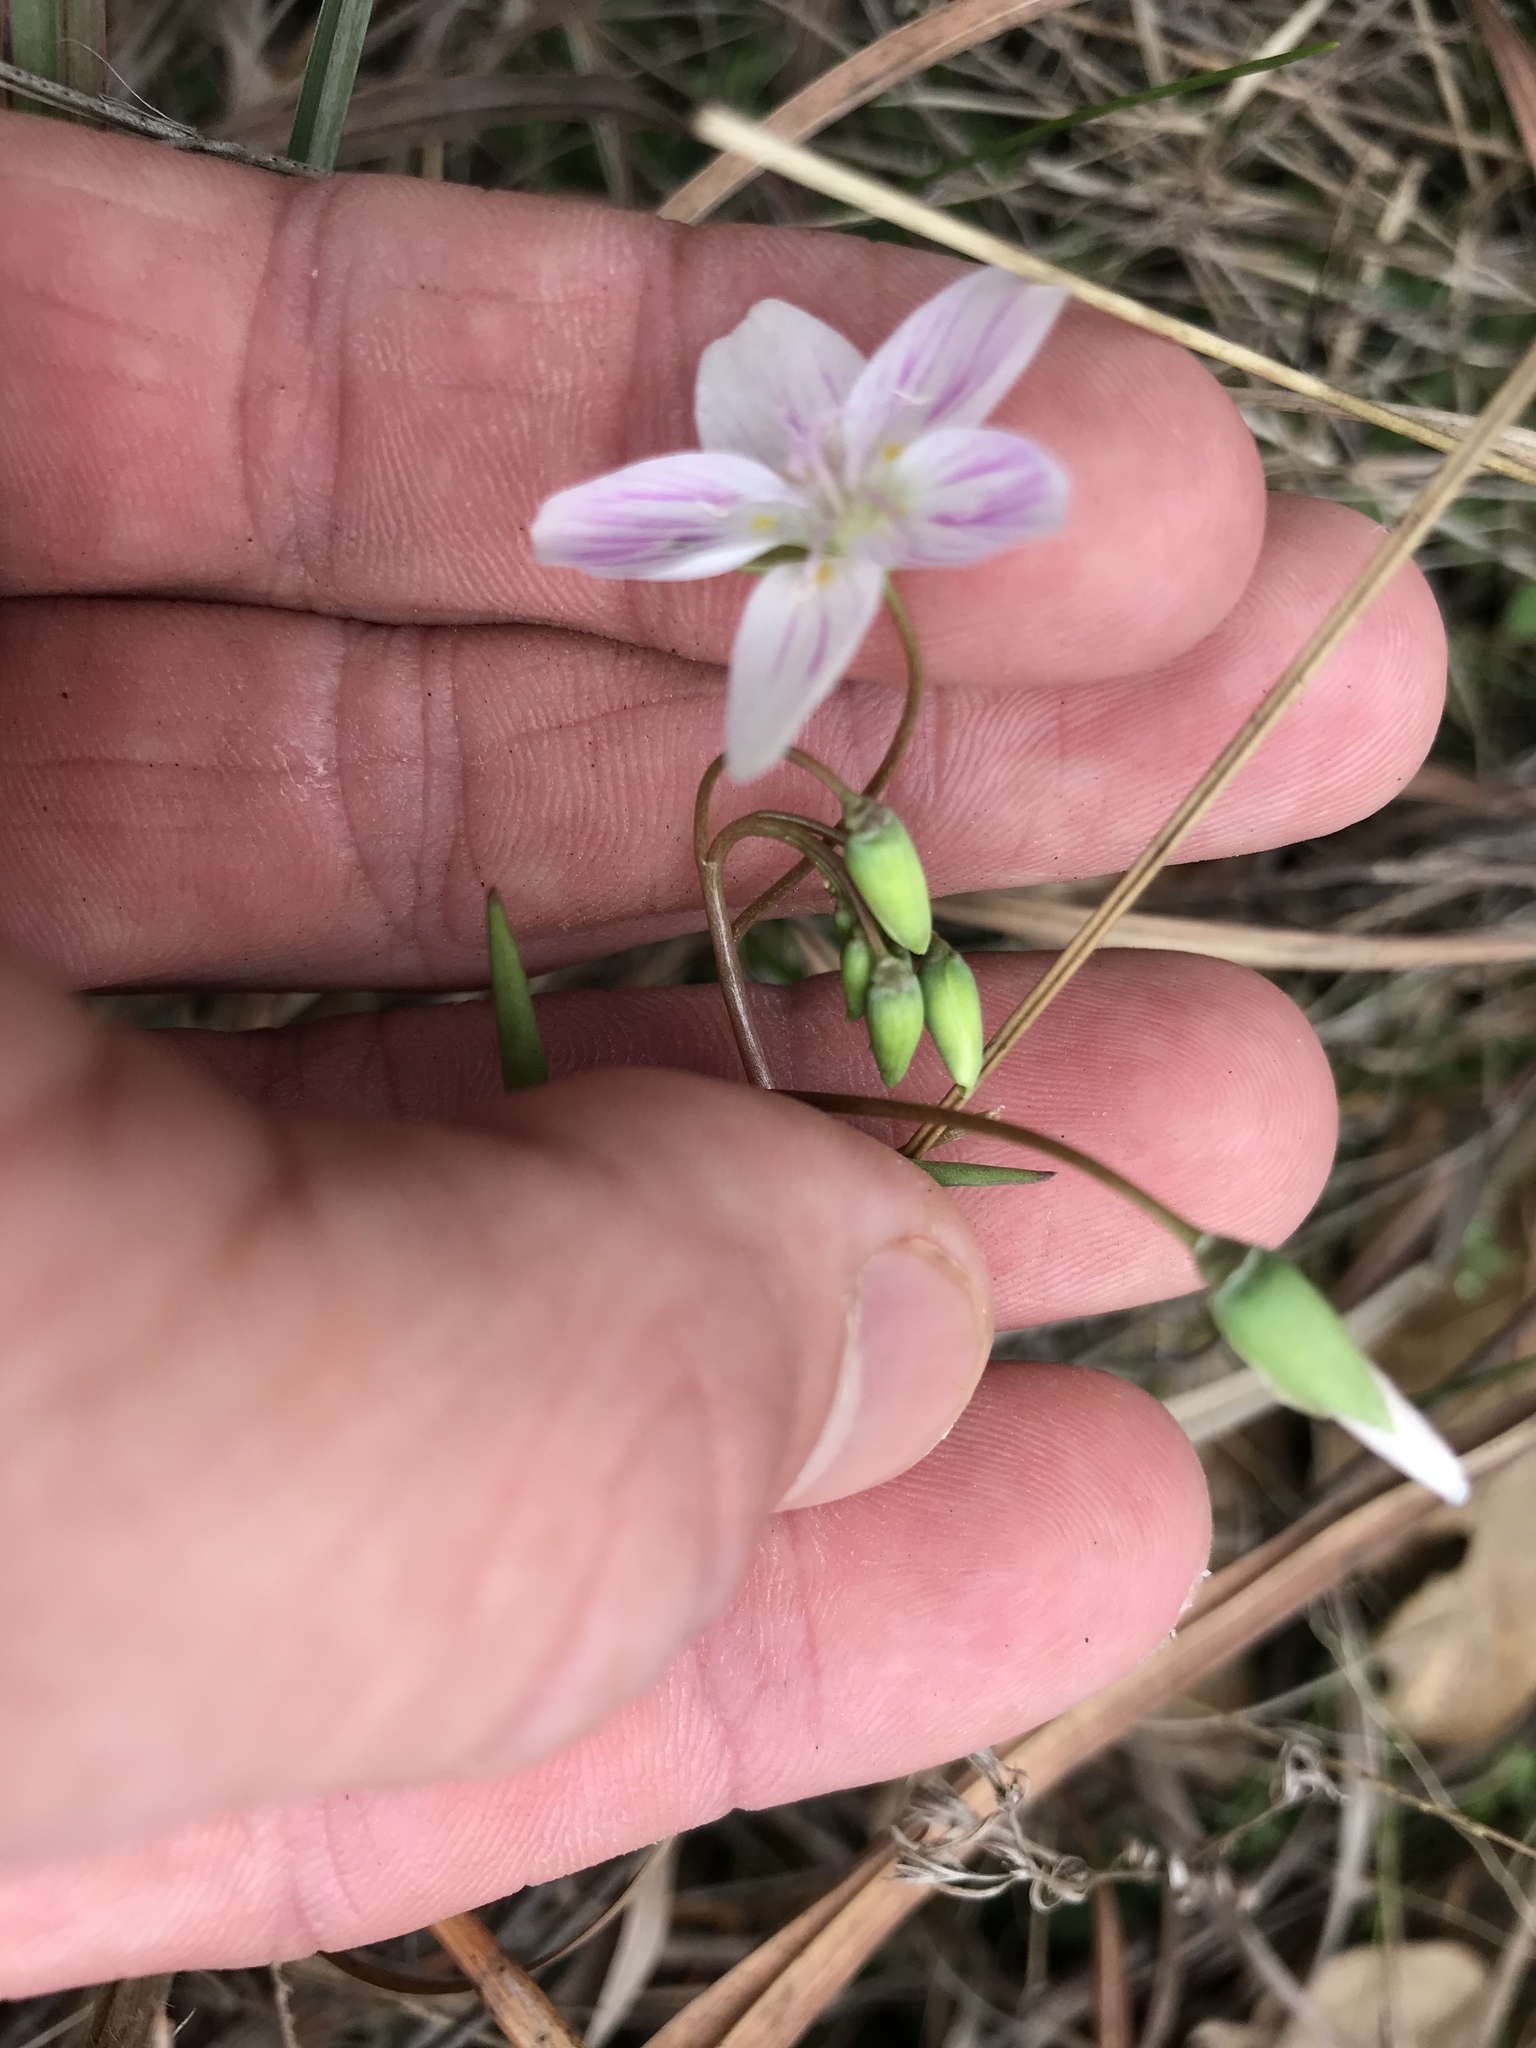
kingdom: Plantae
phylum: Tracheophyta
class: Magnoliopsida
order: Caryophyllales
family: Montiaceae
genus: Claytonia
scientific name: Claytonia virginica
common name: Virginia springbeauty
